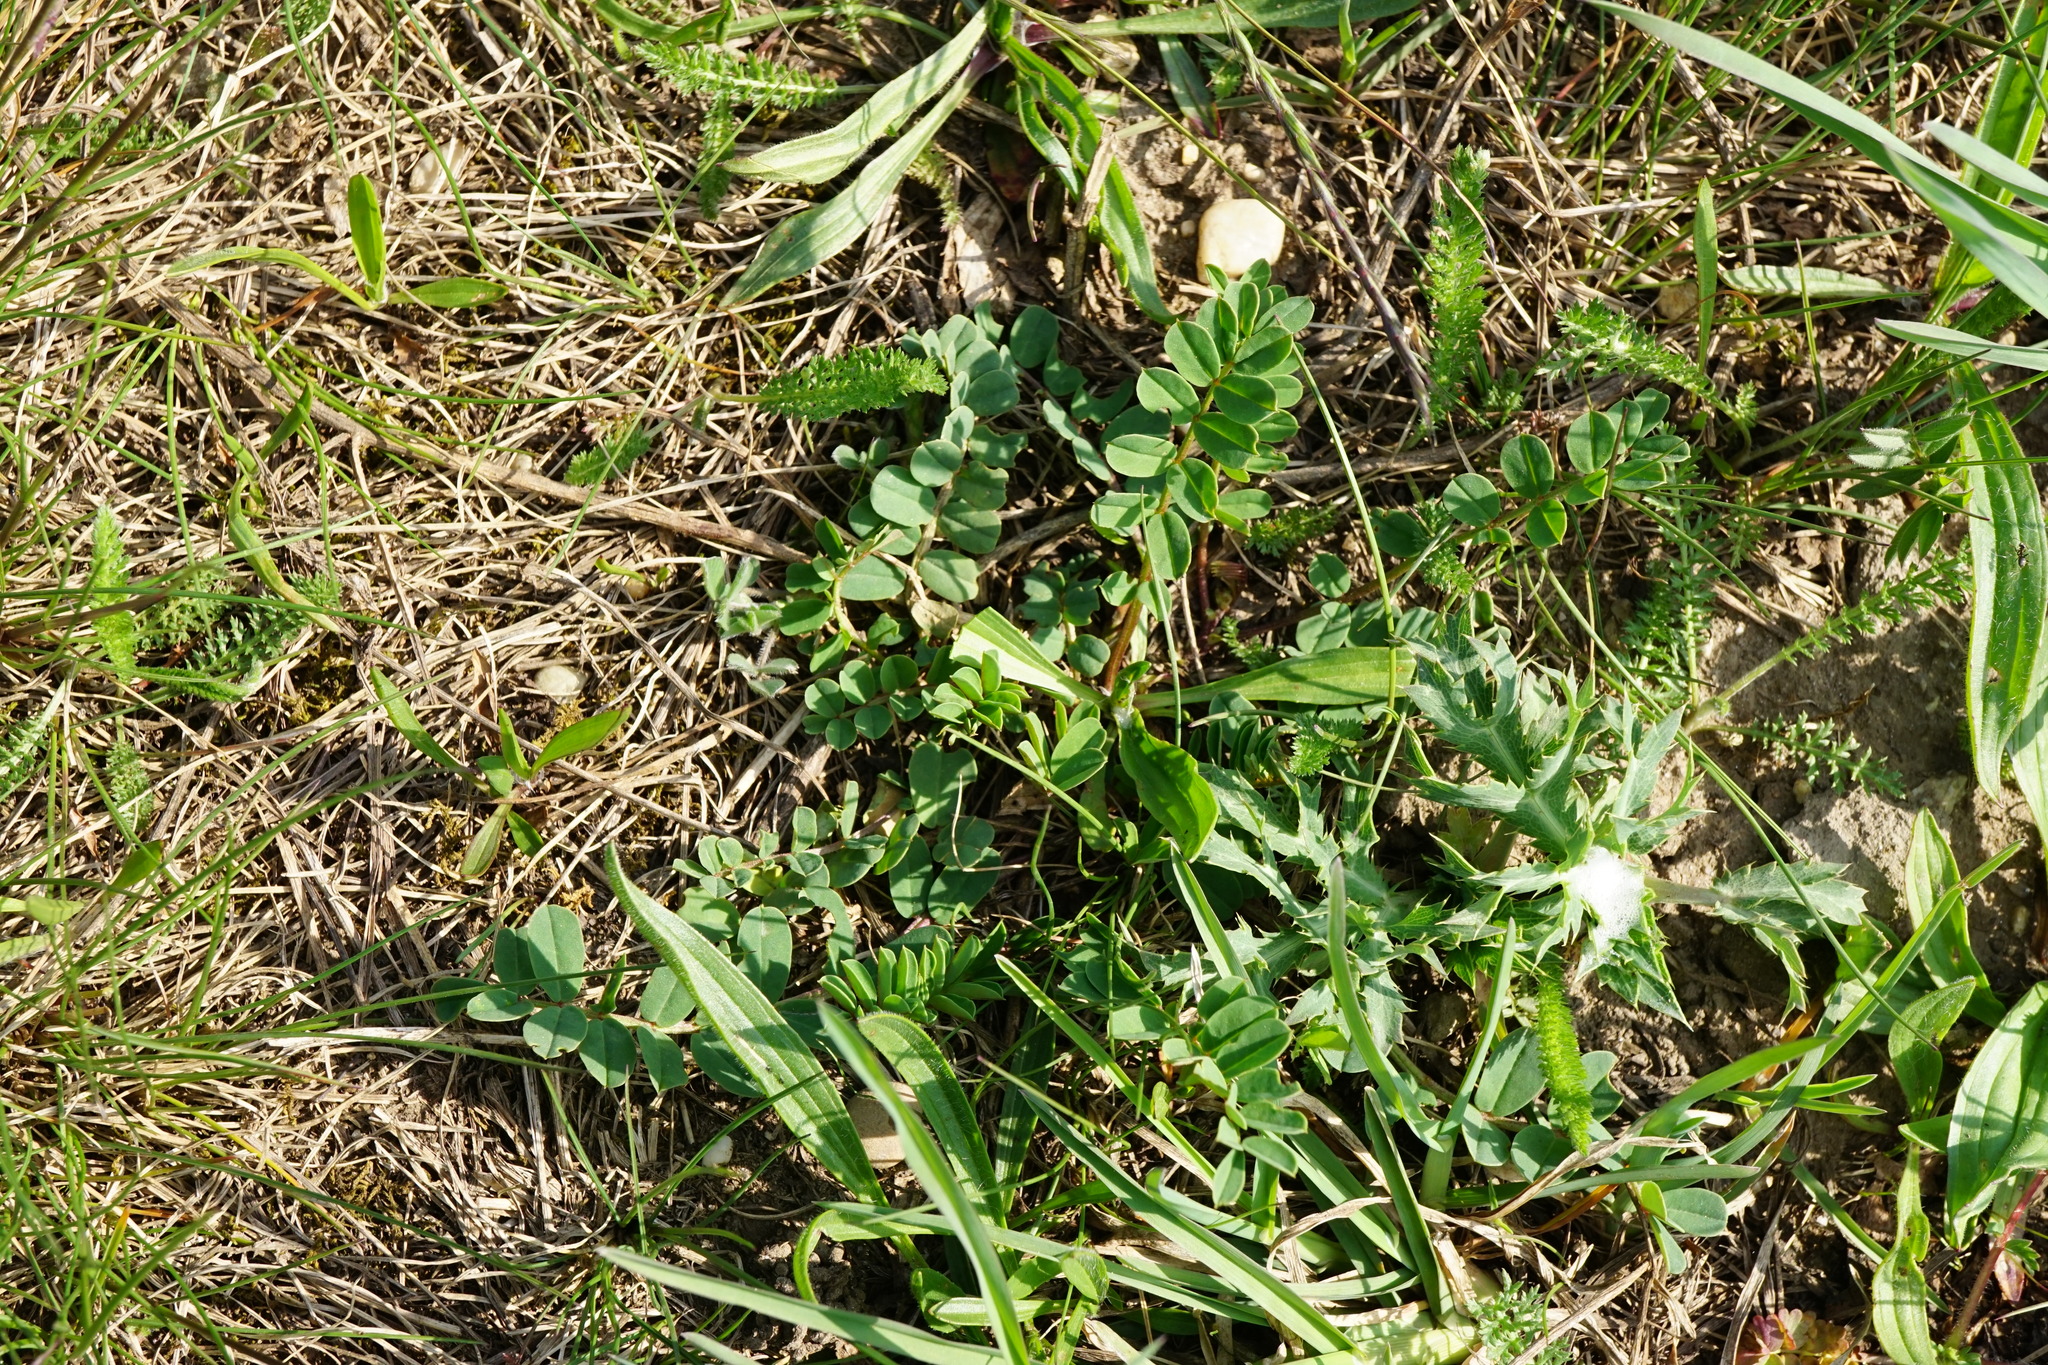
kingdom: Plantae
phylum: Tracheophyta
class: Magnoliopsida
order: Fabales
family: Fabaceae
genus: Coronilla
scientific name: Coronilla varia
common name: Crownvetch
